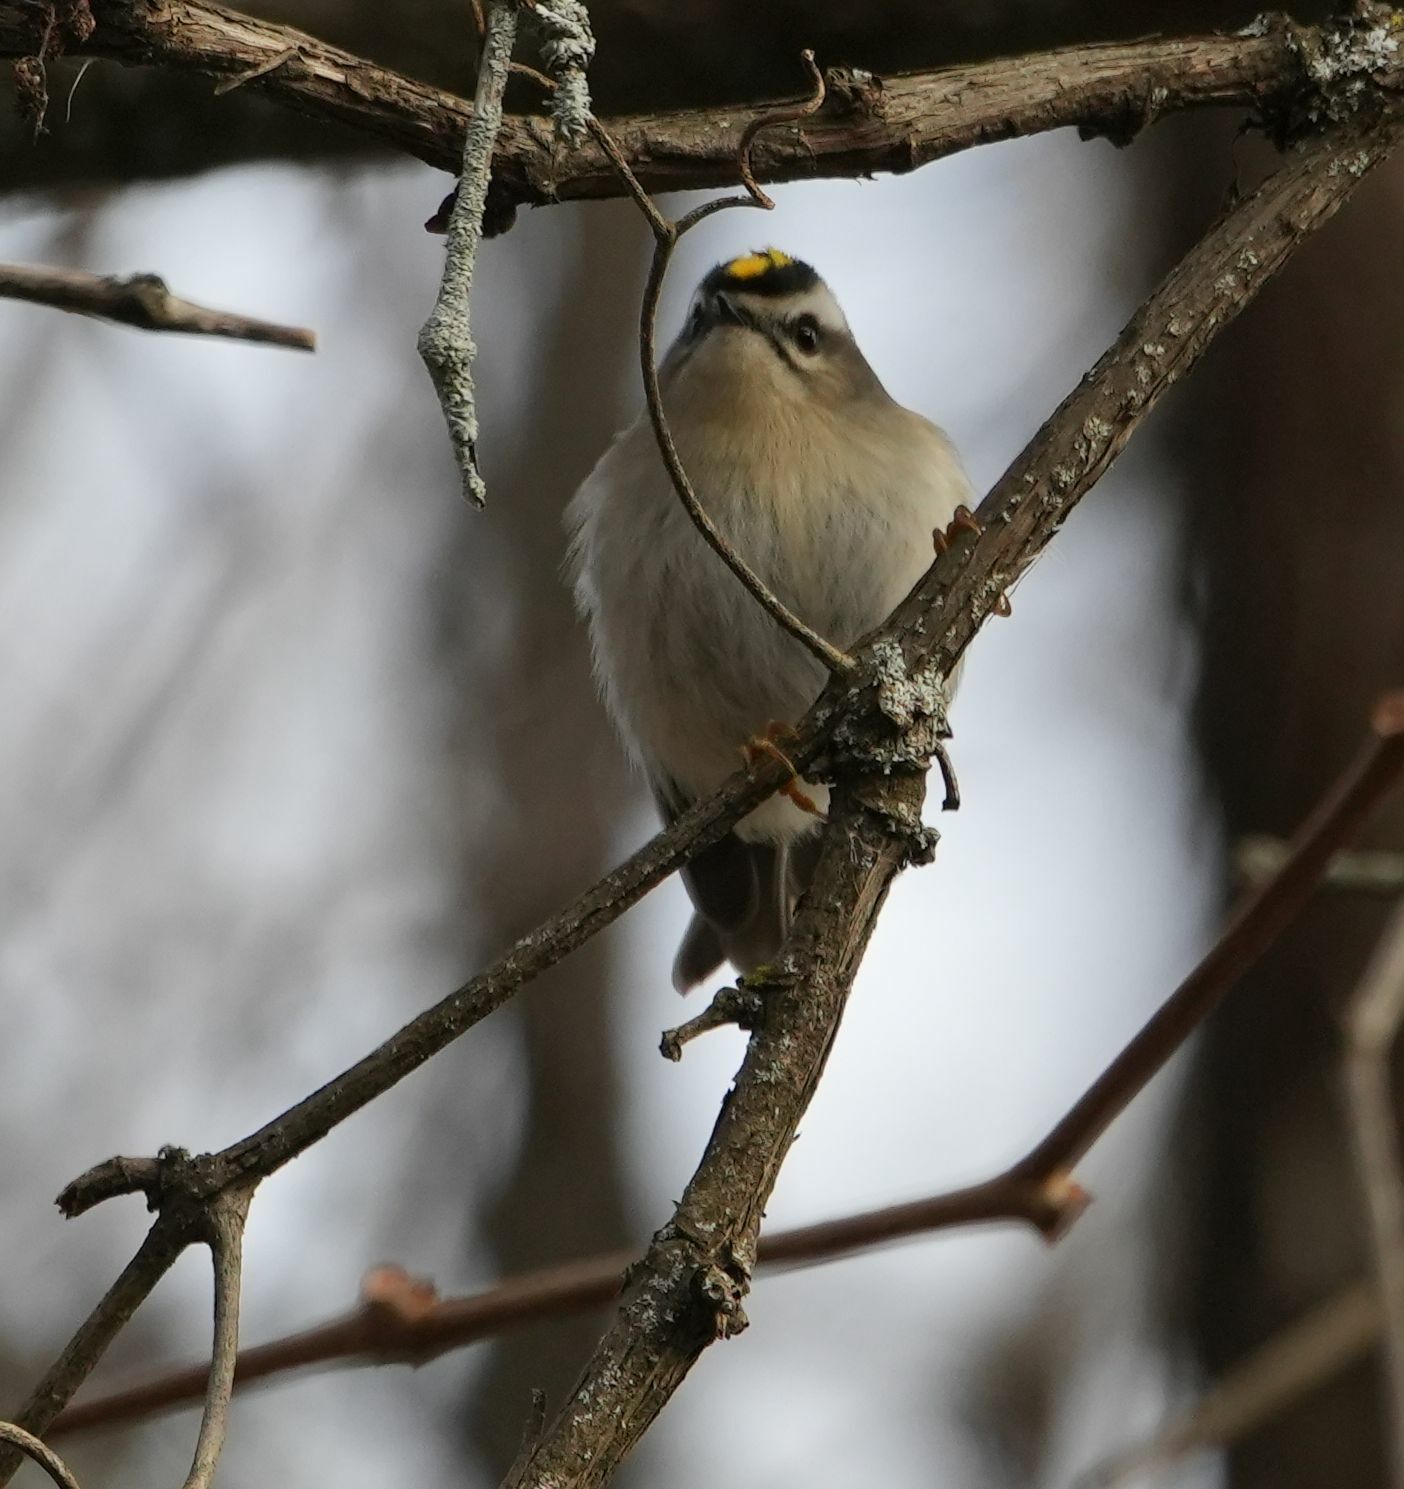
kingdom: Animalia
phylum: Chordata
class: Aves
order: Passeriformes
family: Regulidae
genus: Regulus
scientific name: Regulus satrapa
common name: Golden-crowned kinglet
